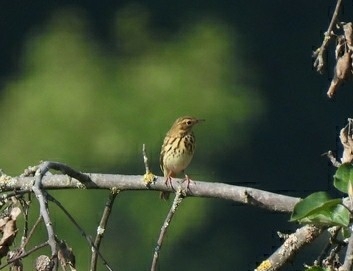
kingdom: Animalia
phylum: Chordata
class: Aves
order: Passeriformes
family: Motacillidae
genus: Anthus
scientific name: Anthus trivialis
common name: Tree pipit
